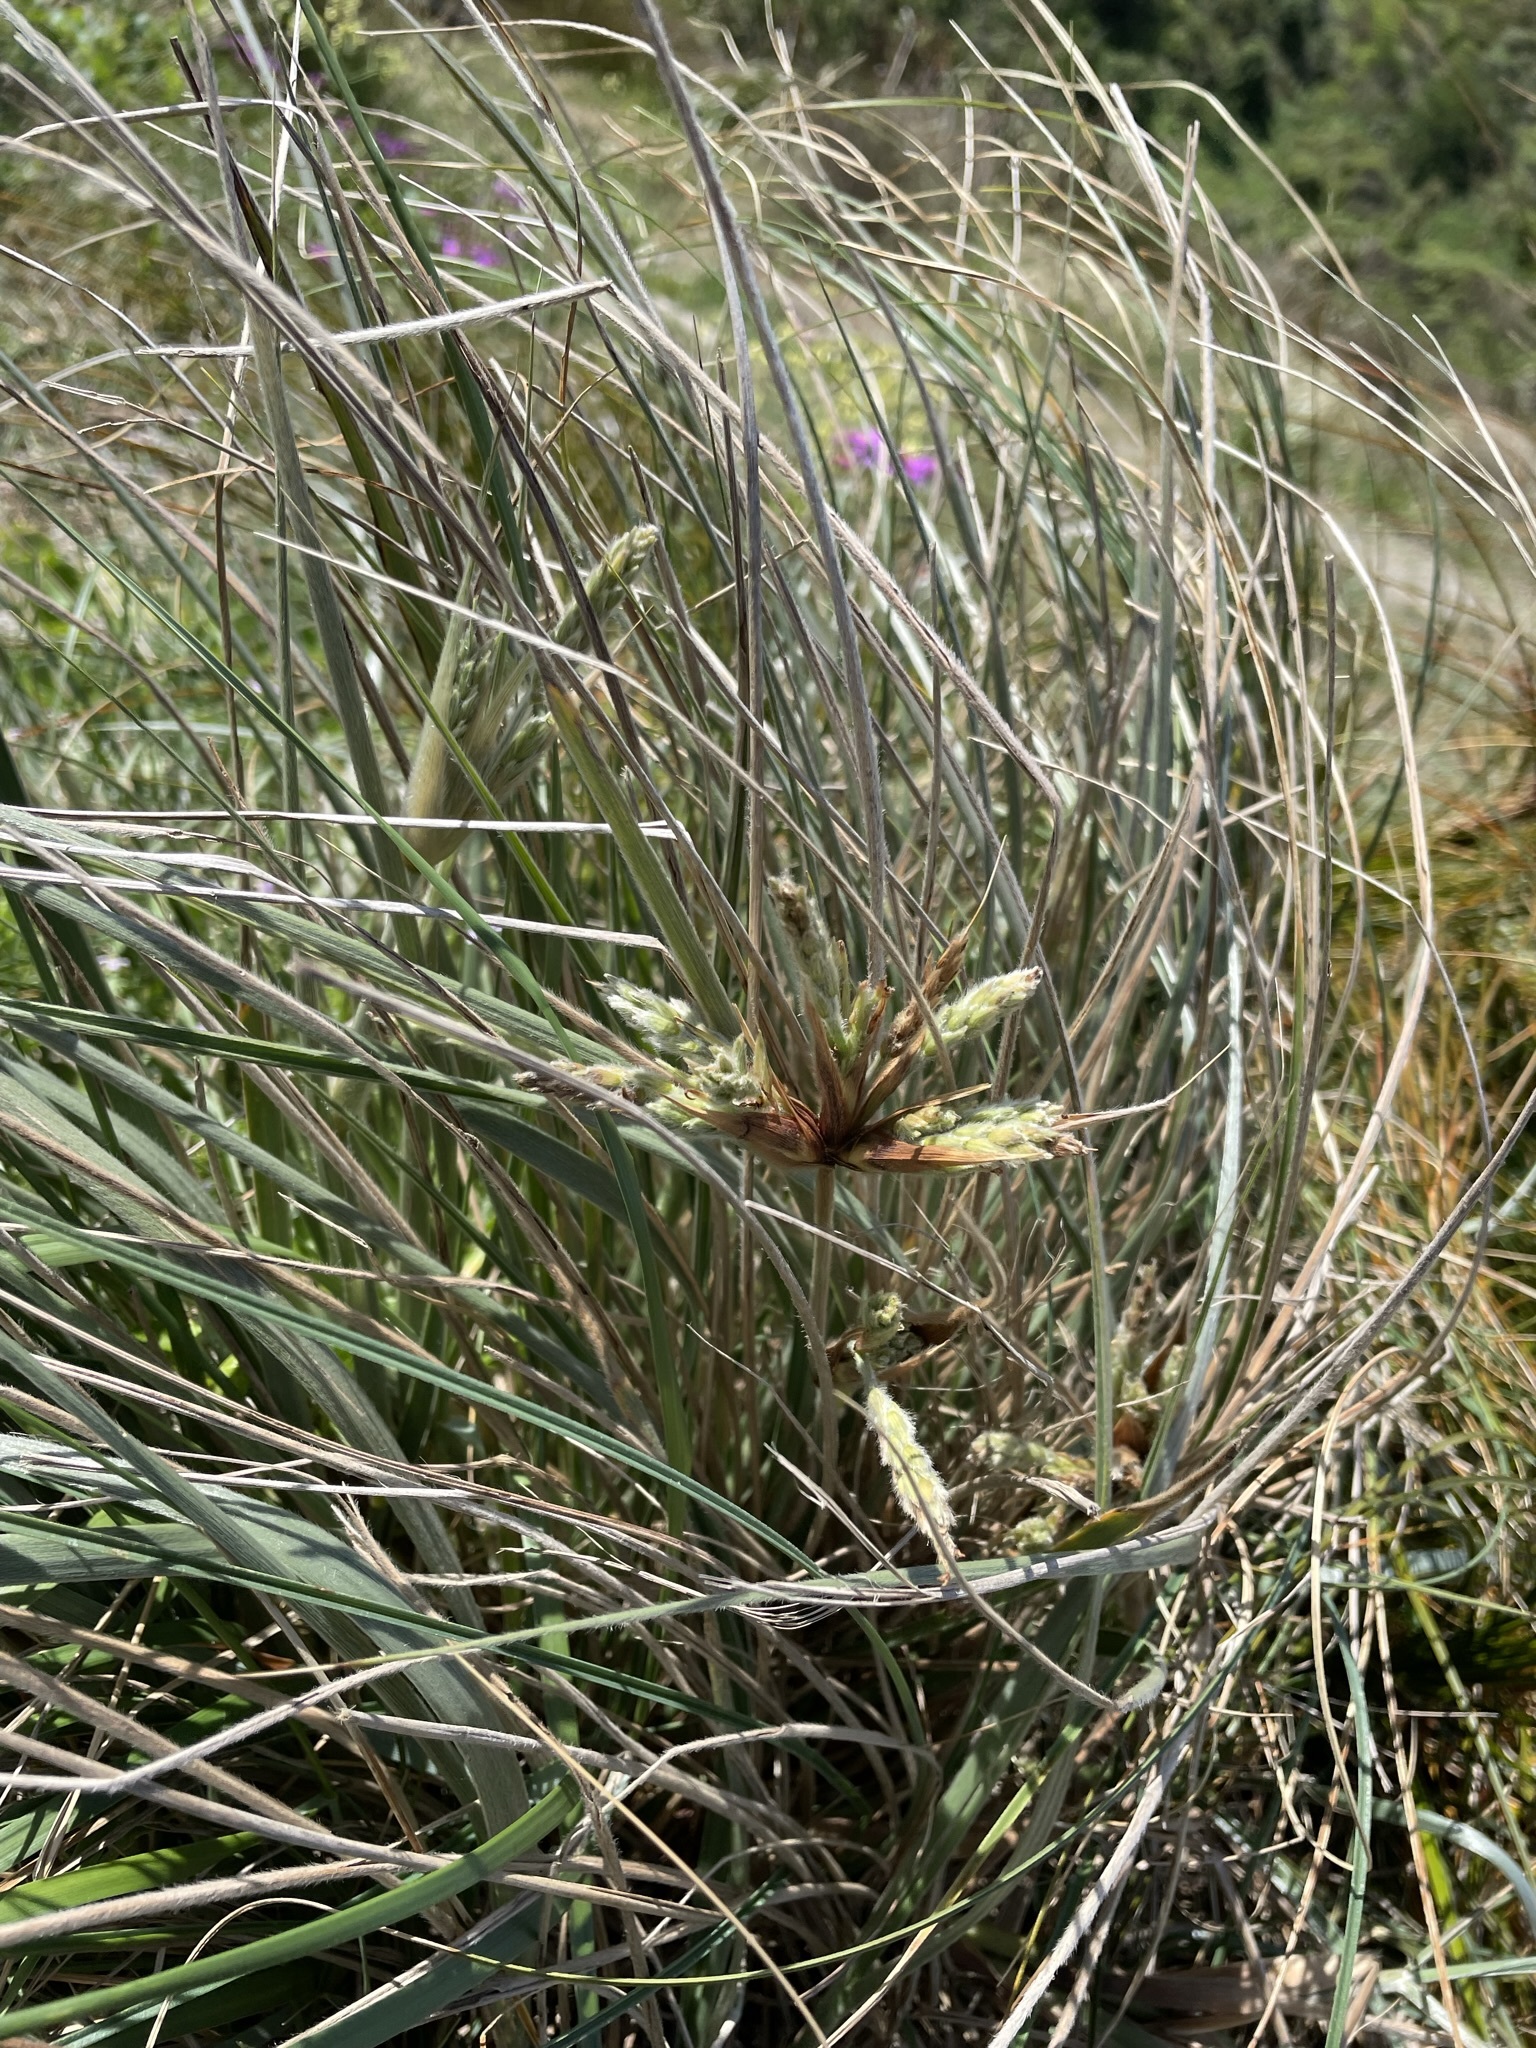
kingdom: Plantae
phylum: Tracheophyta
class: Liliopsida
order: Poales
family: Poaceae
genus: Spinifex
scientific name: Spinifex sericeus
